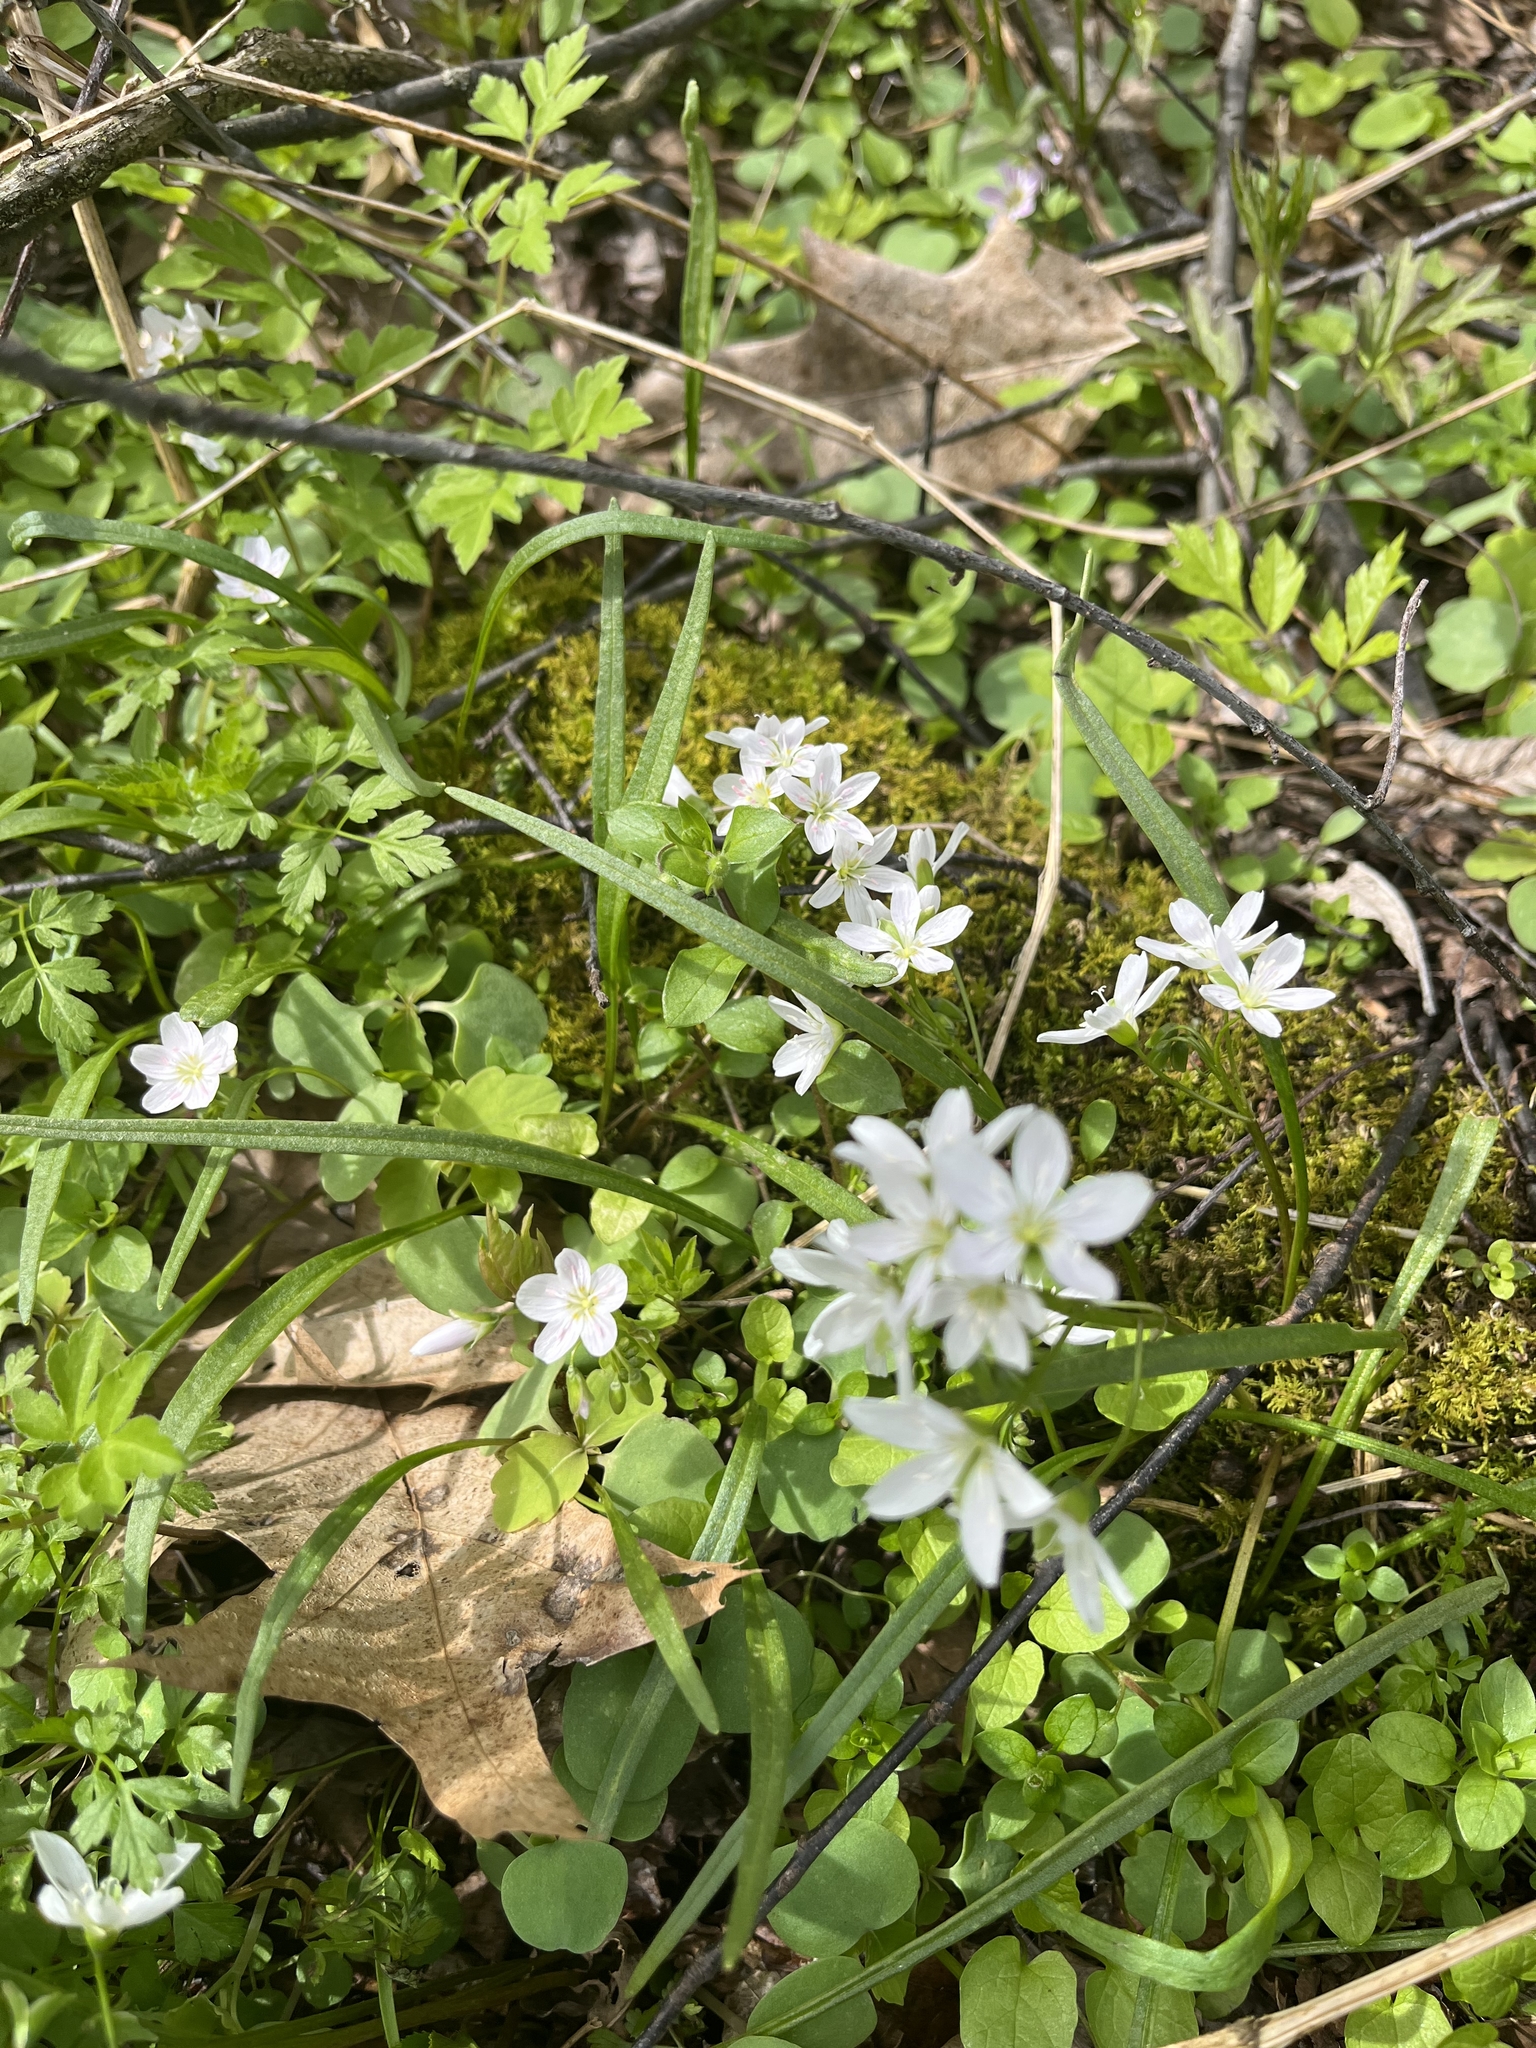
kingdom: Plantae
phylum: Tracheophyta
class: Magnoliopsida
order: Caryophyllales
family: Montiaceae
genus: Claytonia
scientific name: Claytonia virginica
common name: Virginia springbeauty
